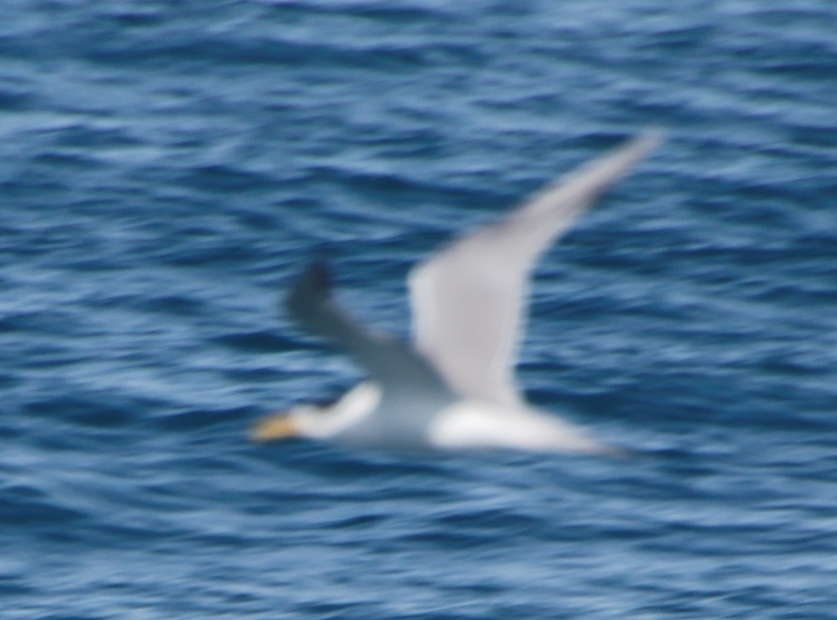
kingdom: Animalia
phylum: Chordata
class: Aves
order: Charadriiformes
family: Laridae
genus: Thalasseus
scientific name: Thalasseus bergii
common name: Greater crested tern
